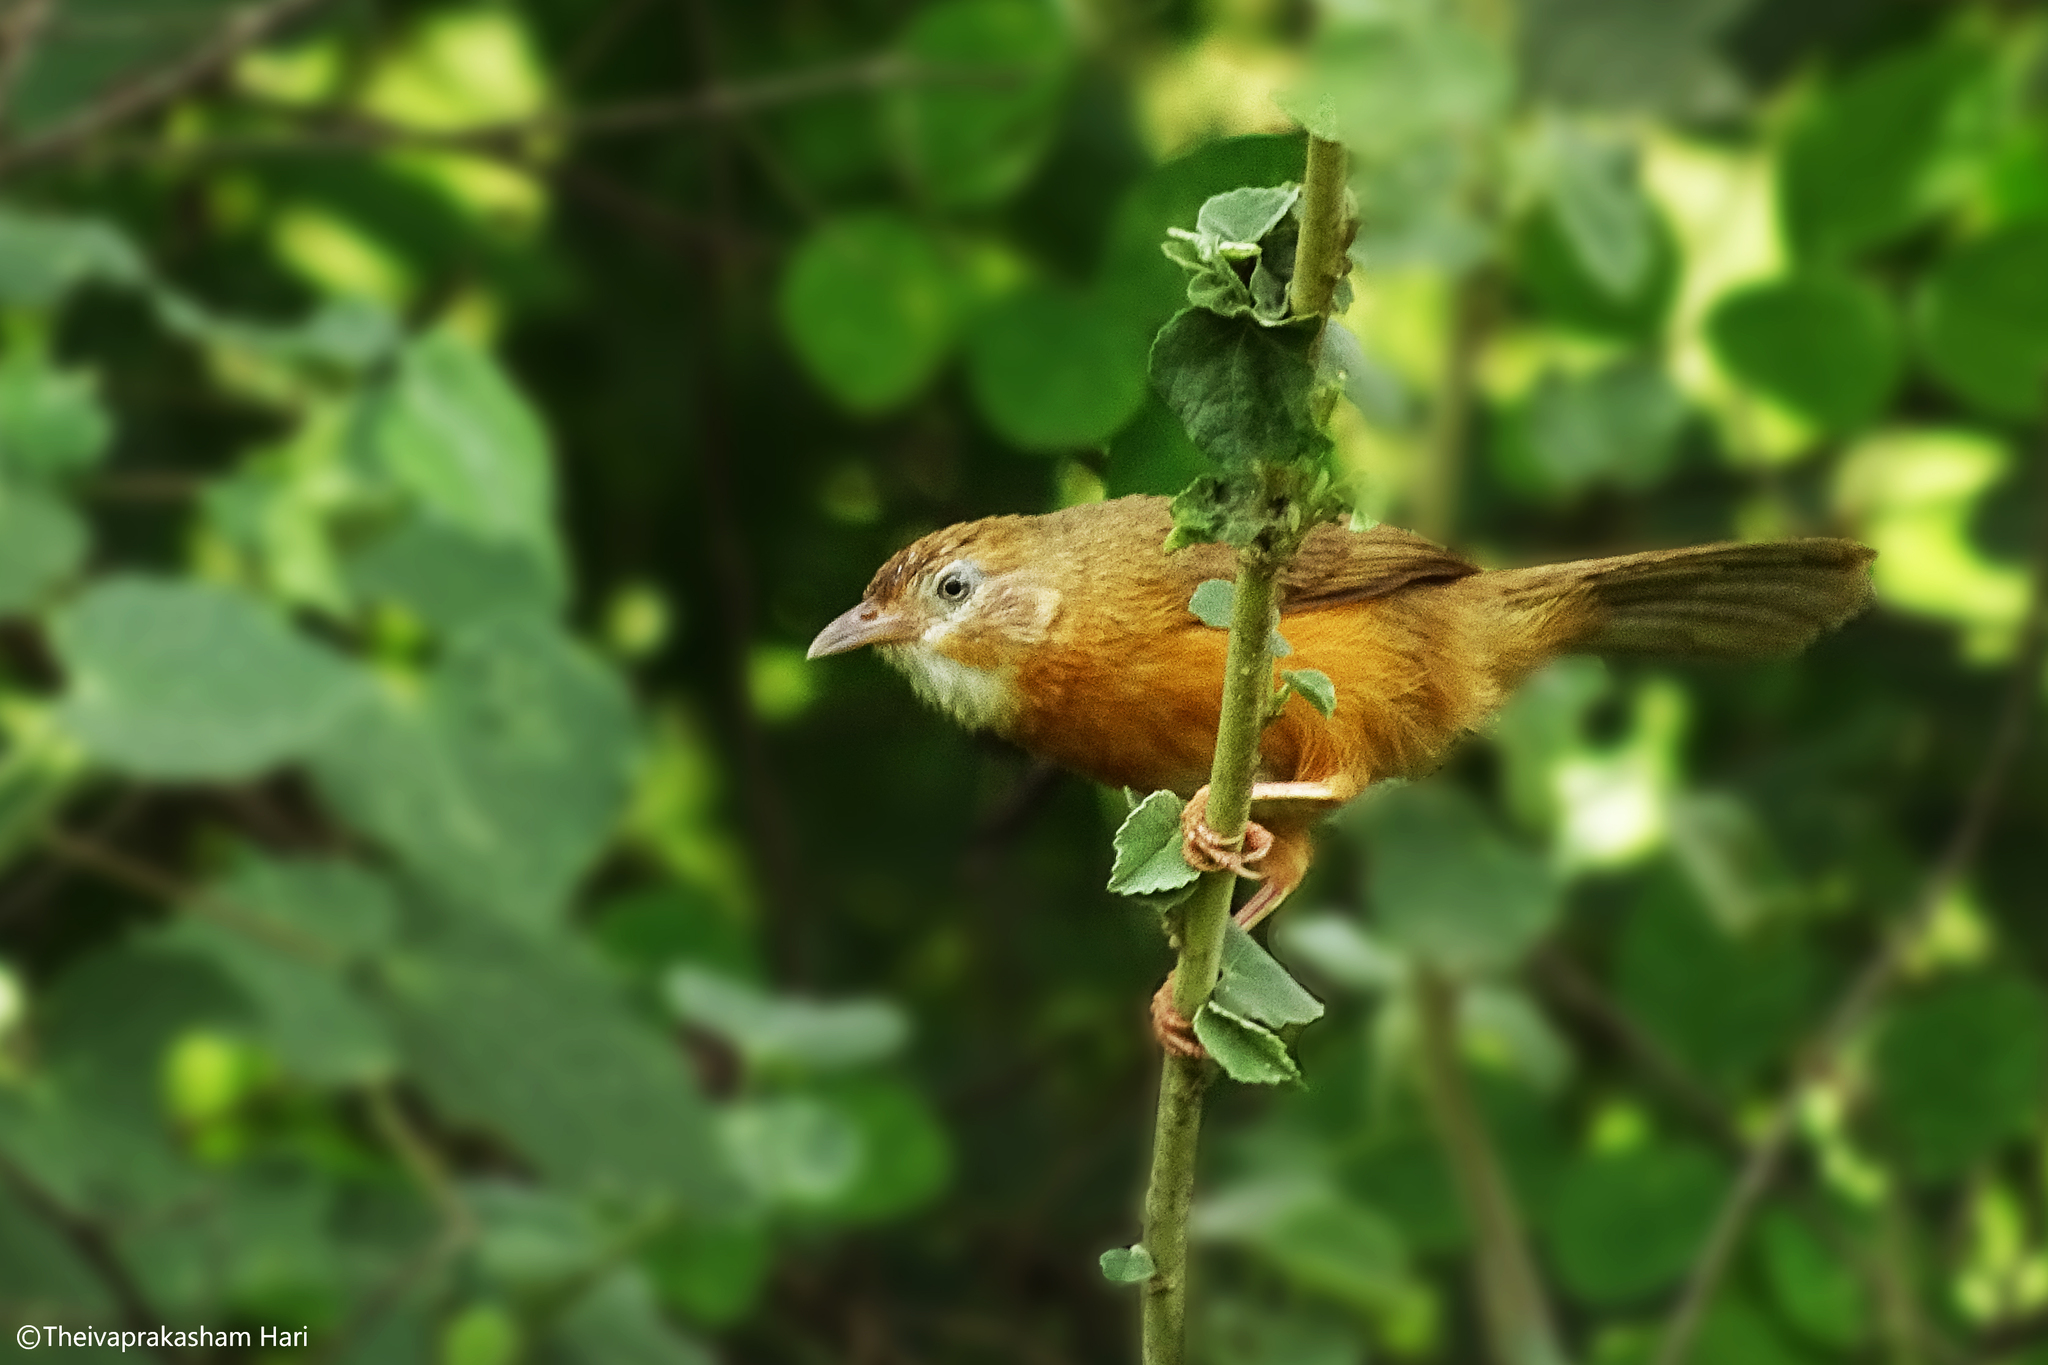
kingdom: Animalia
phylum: Chordata
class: Aves
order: Passeriformes
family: Timaliidae
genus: Dumetia
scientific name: Dumetia hyperythra
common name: Tawny-bellied babbler
